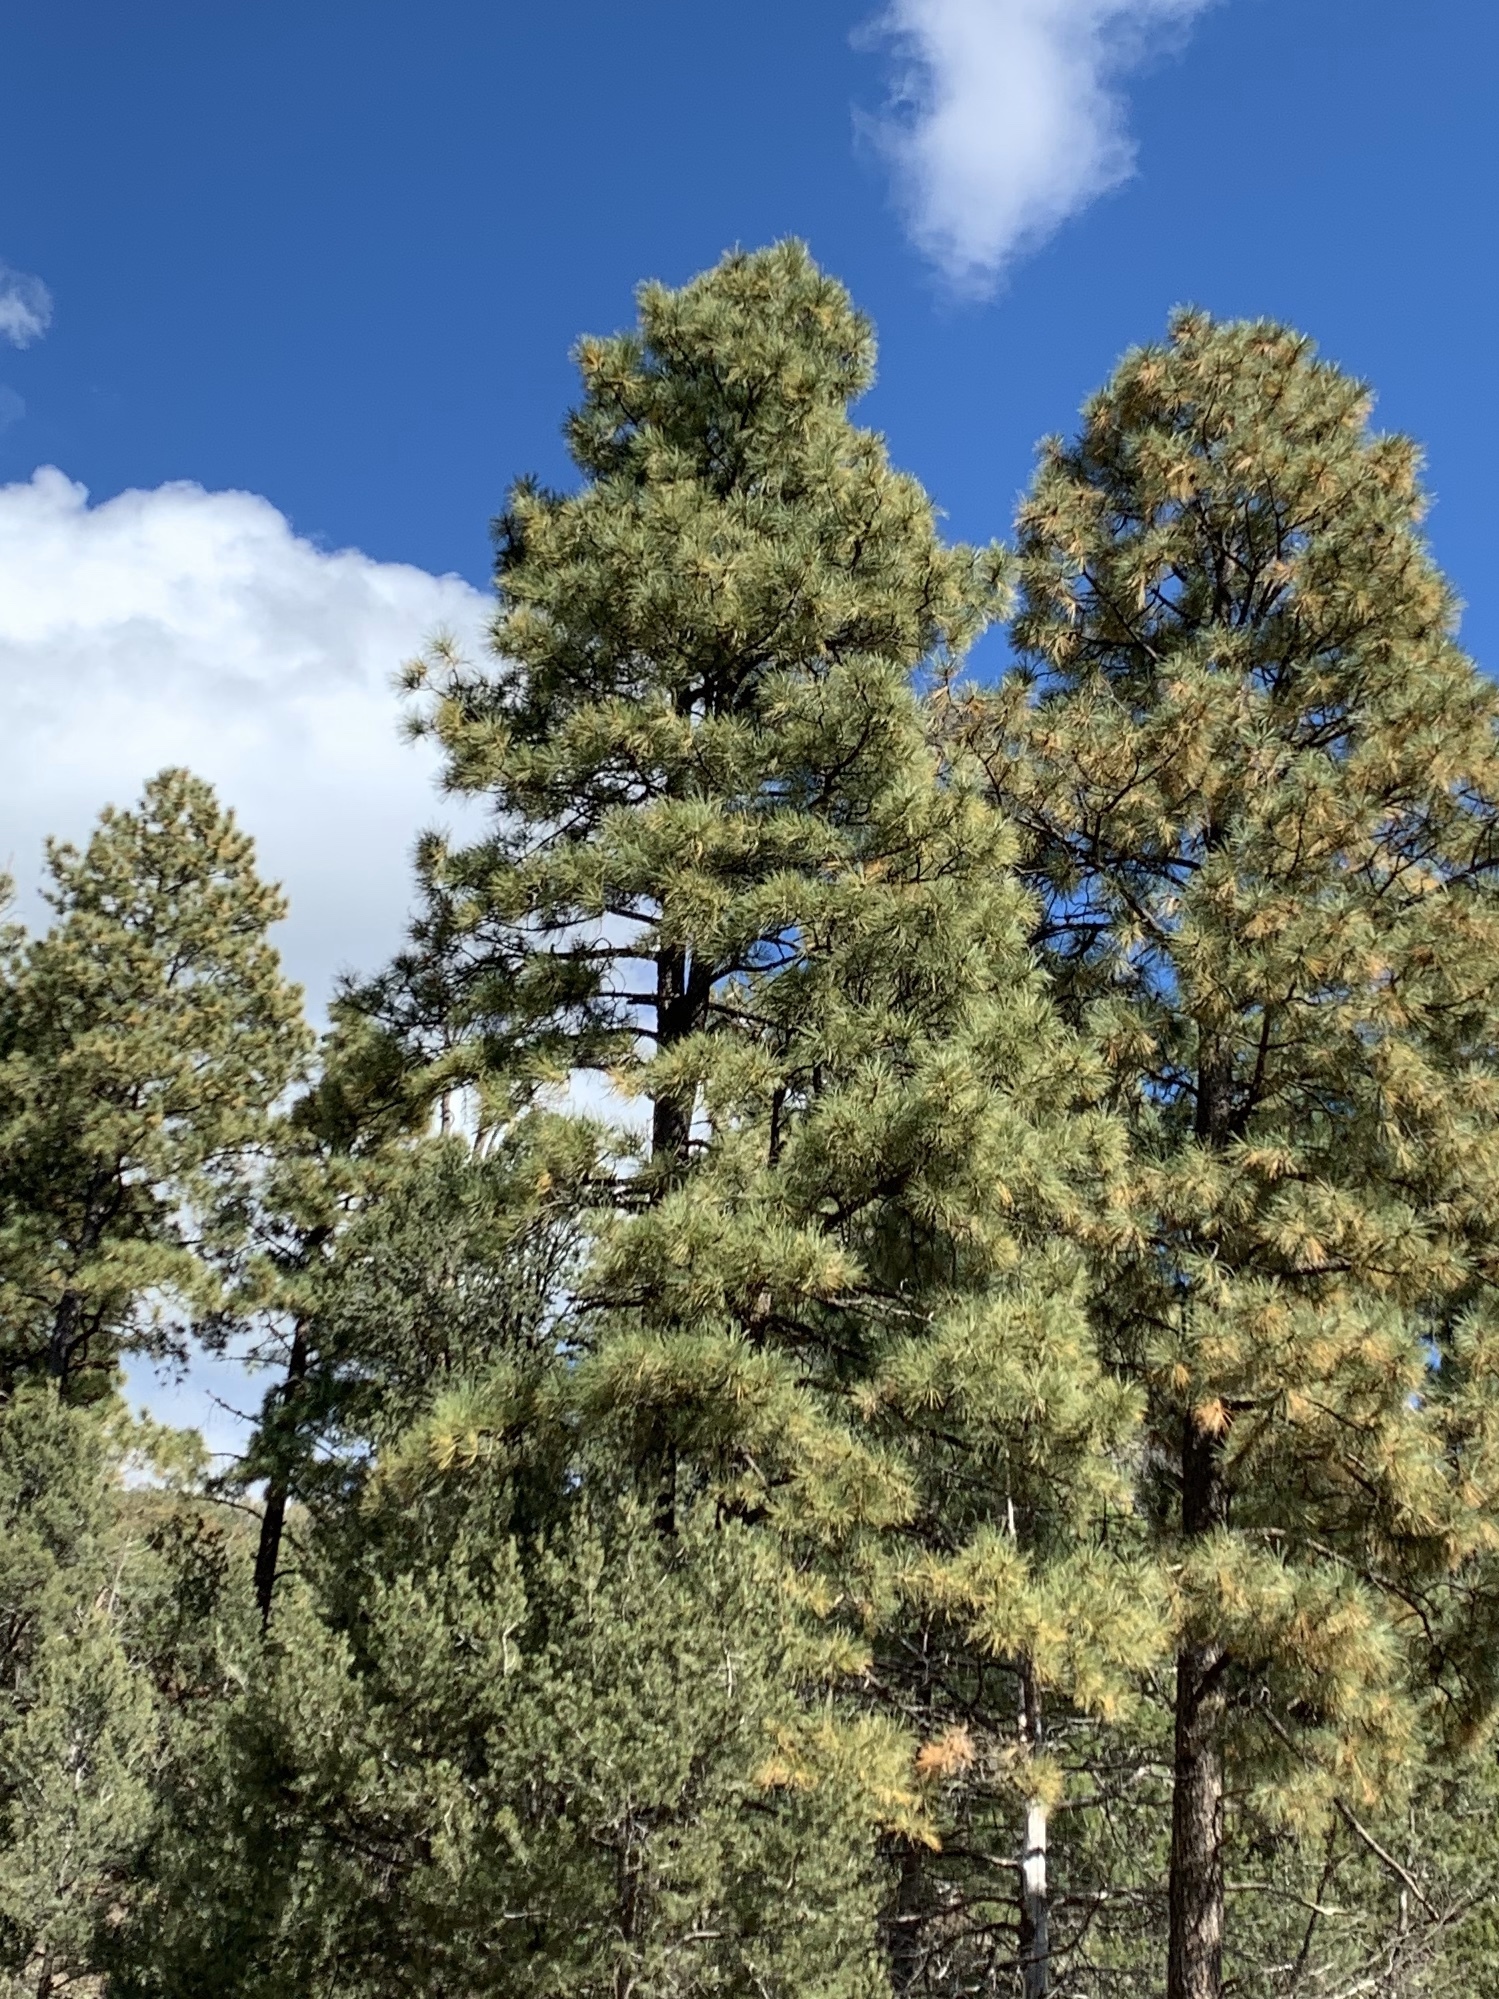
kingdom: Plantae
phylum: Tracheophyta
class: Pinopsida
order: Pinales
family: Pinaceae
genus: Pinus
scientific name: Pinus ponderosa
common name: Western yellow-pine
